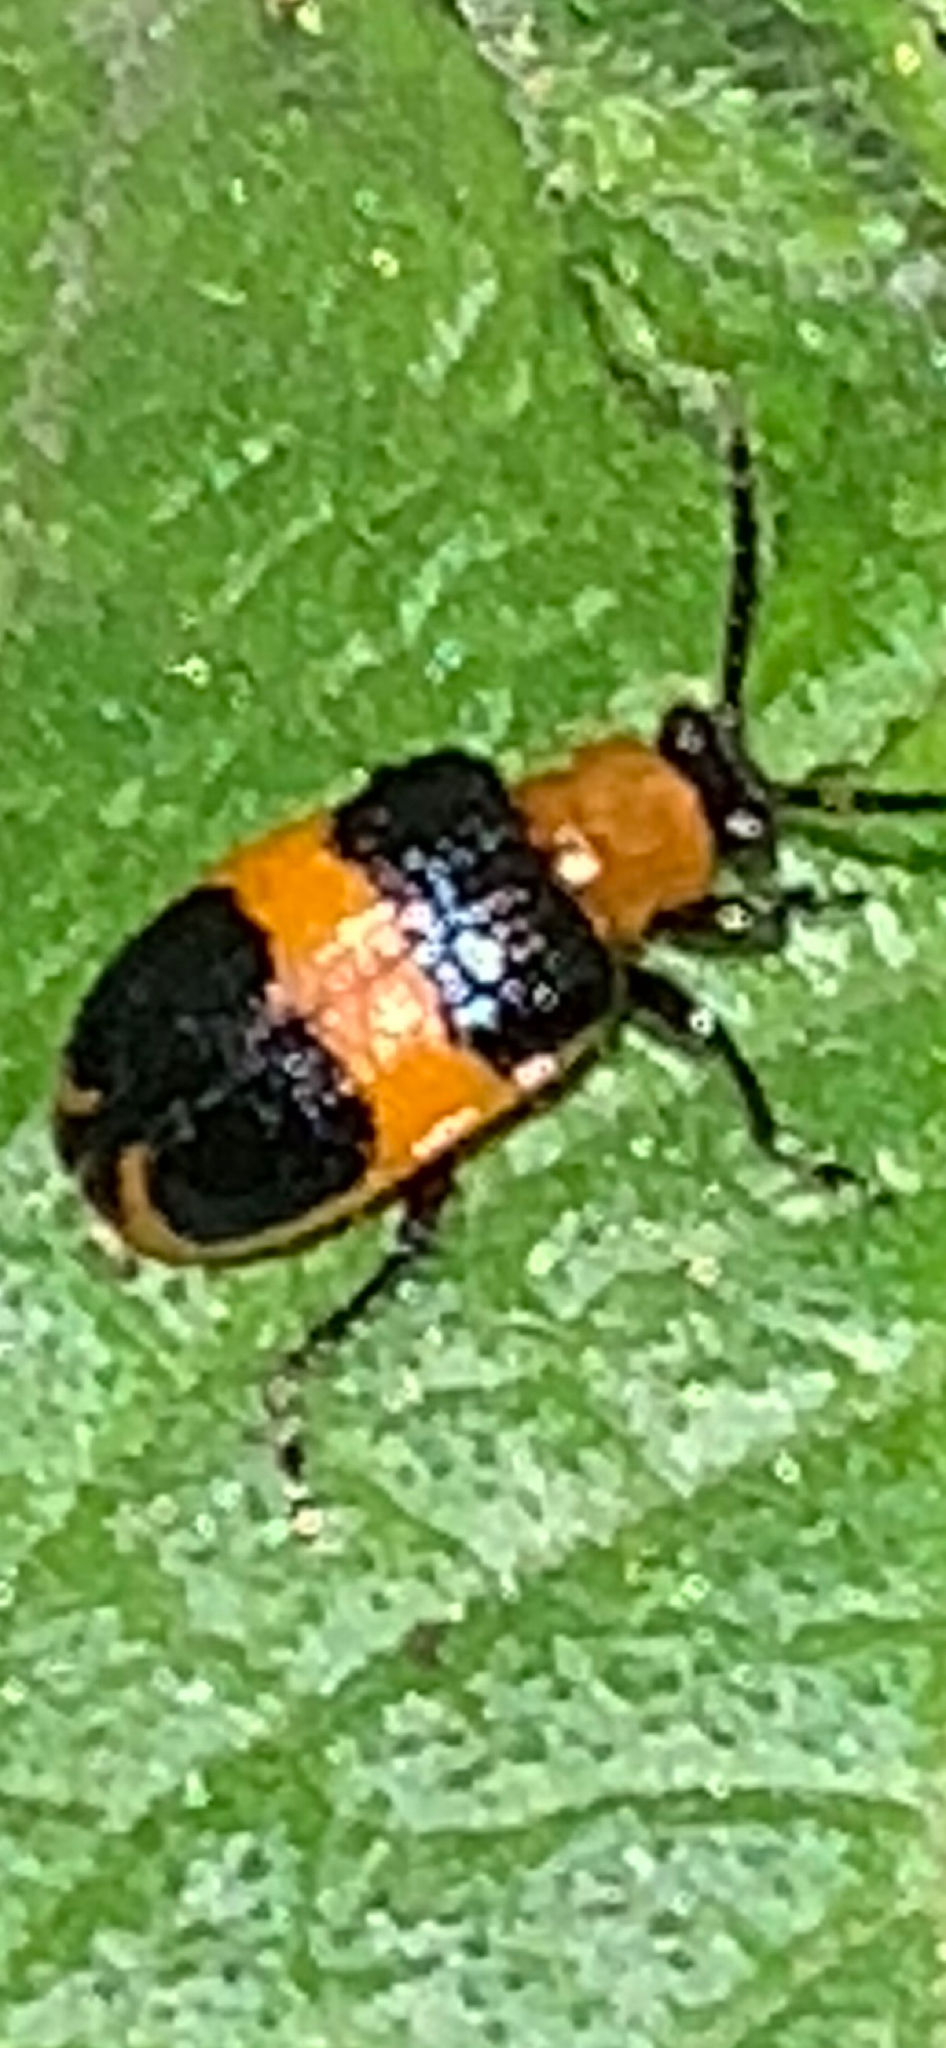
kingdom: Animalia
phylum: Arthropoda
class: Insecta
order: Coleoptera
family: Chrysomelidae
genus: Lema
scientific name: Lema solani
